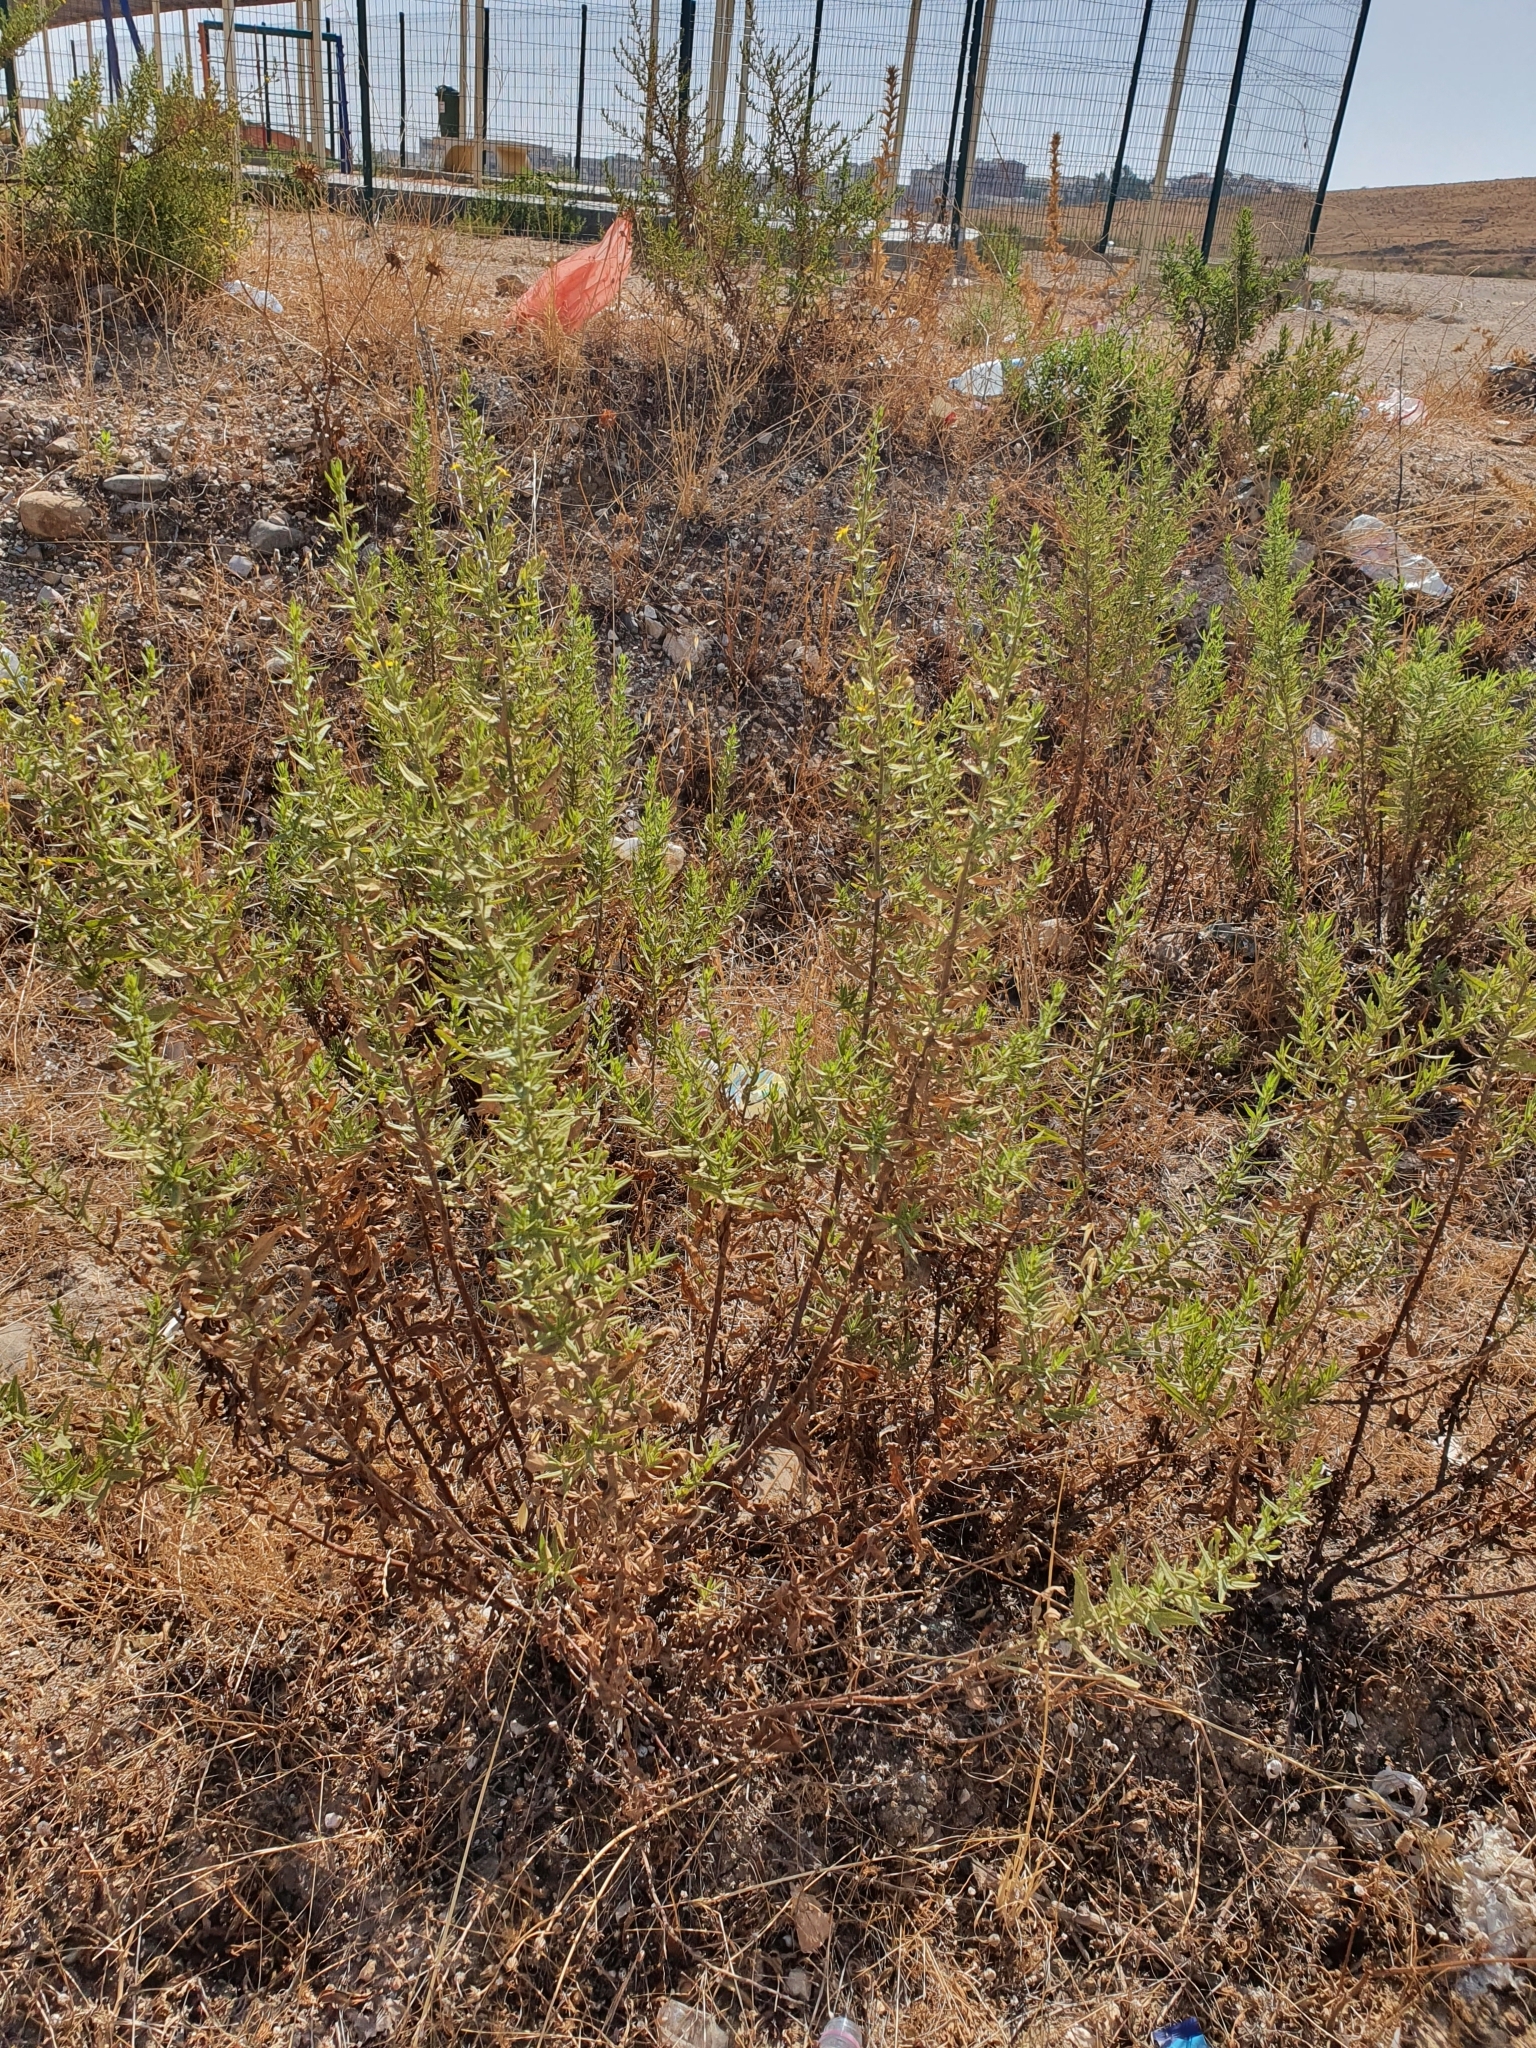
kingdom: Plantae
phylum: Tracheophyta
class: Magnoliopsida
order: Asterales
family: Asteraceae
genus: Dittrichia
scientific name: Dittrichia viscosa
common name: Woody fleabane
